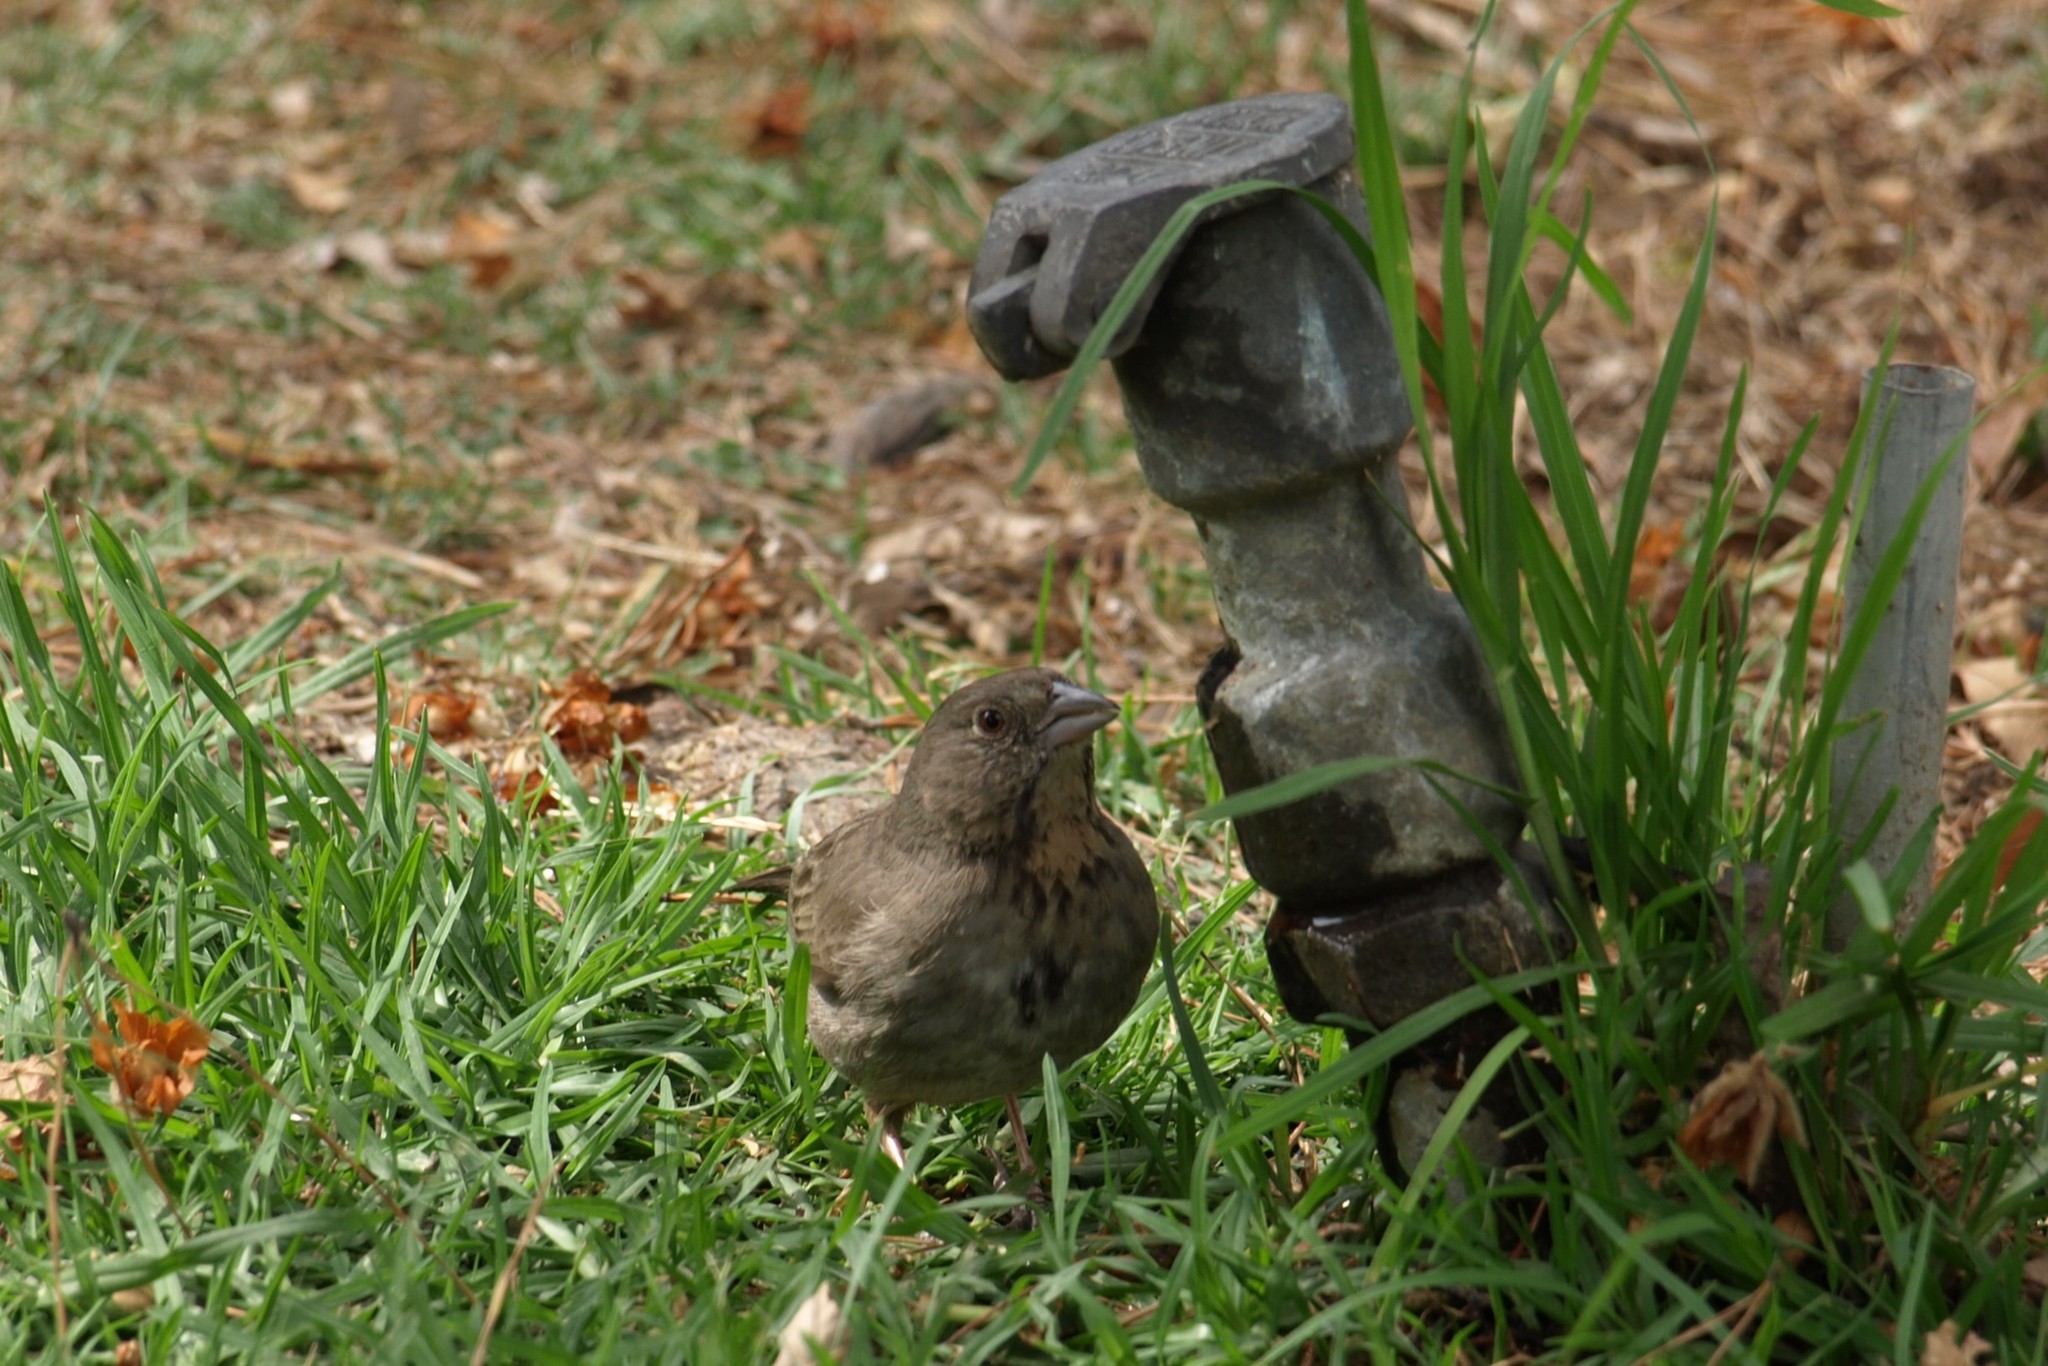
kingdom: Animalia
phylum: Chordata
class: Aves
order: Passeriformes
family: Passerellidae
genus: Melozone
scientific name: Melozone fusca
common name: Canyon towhee
